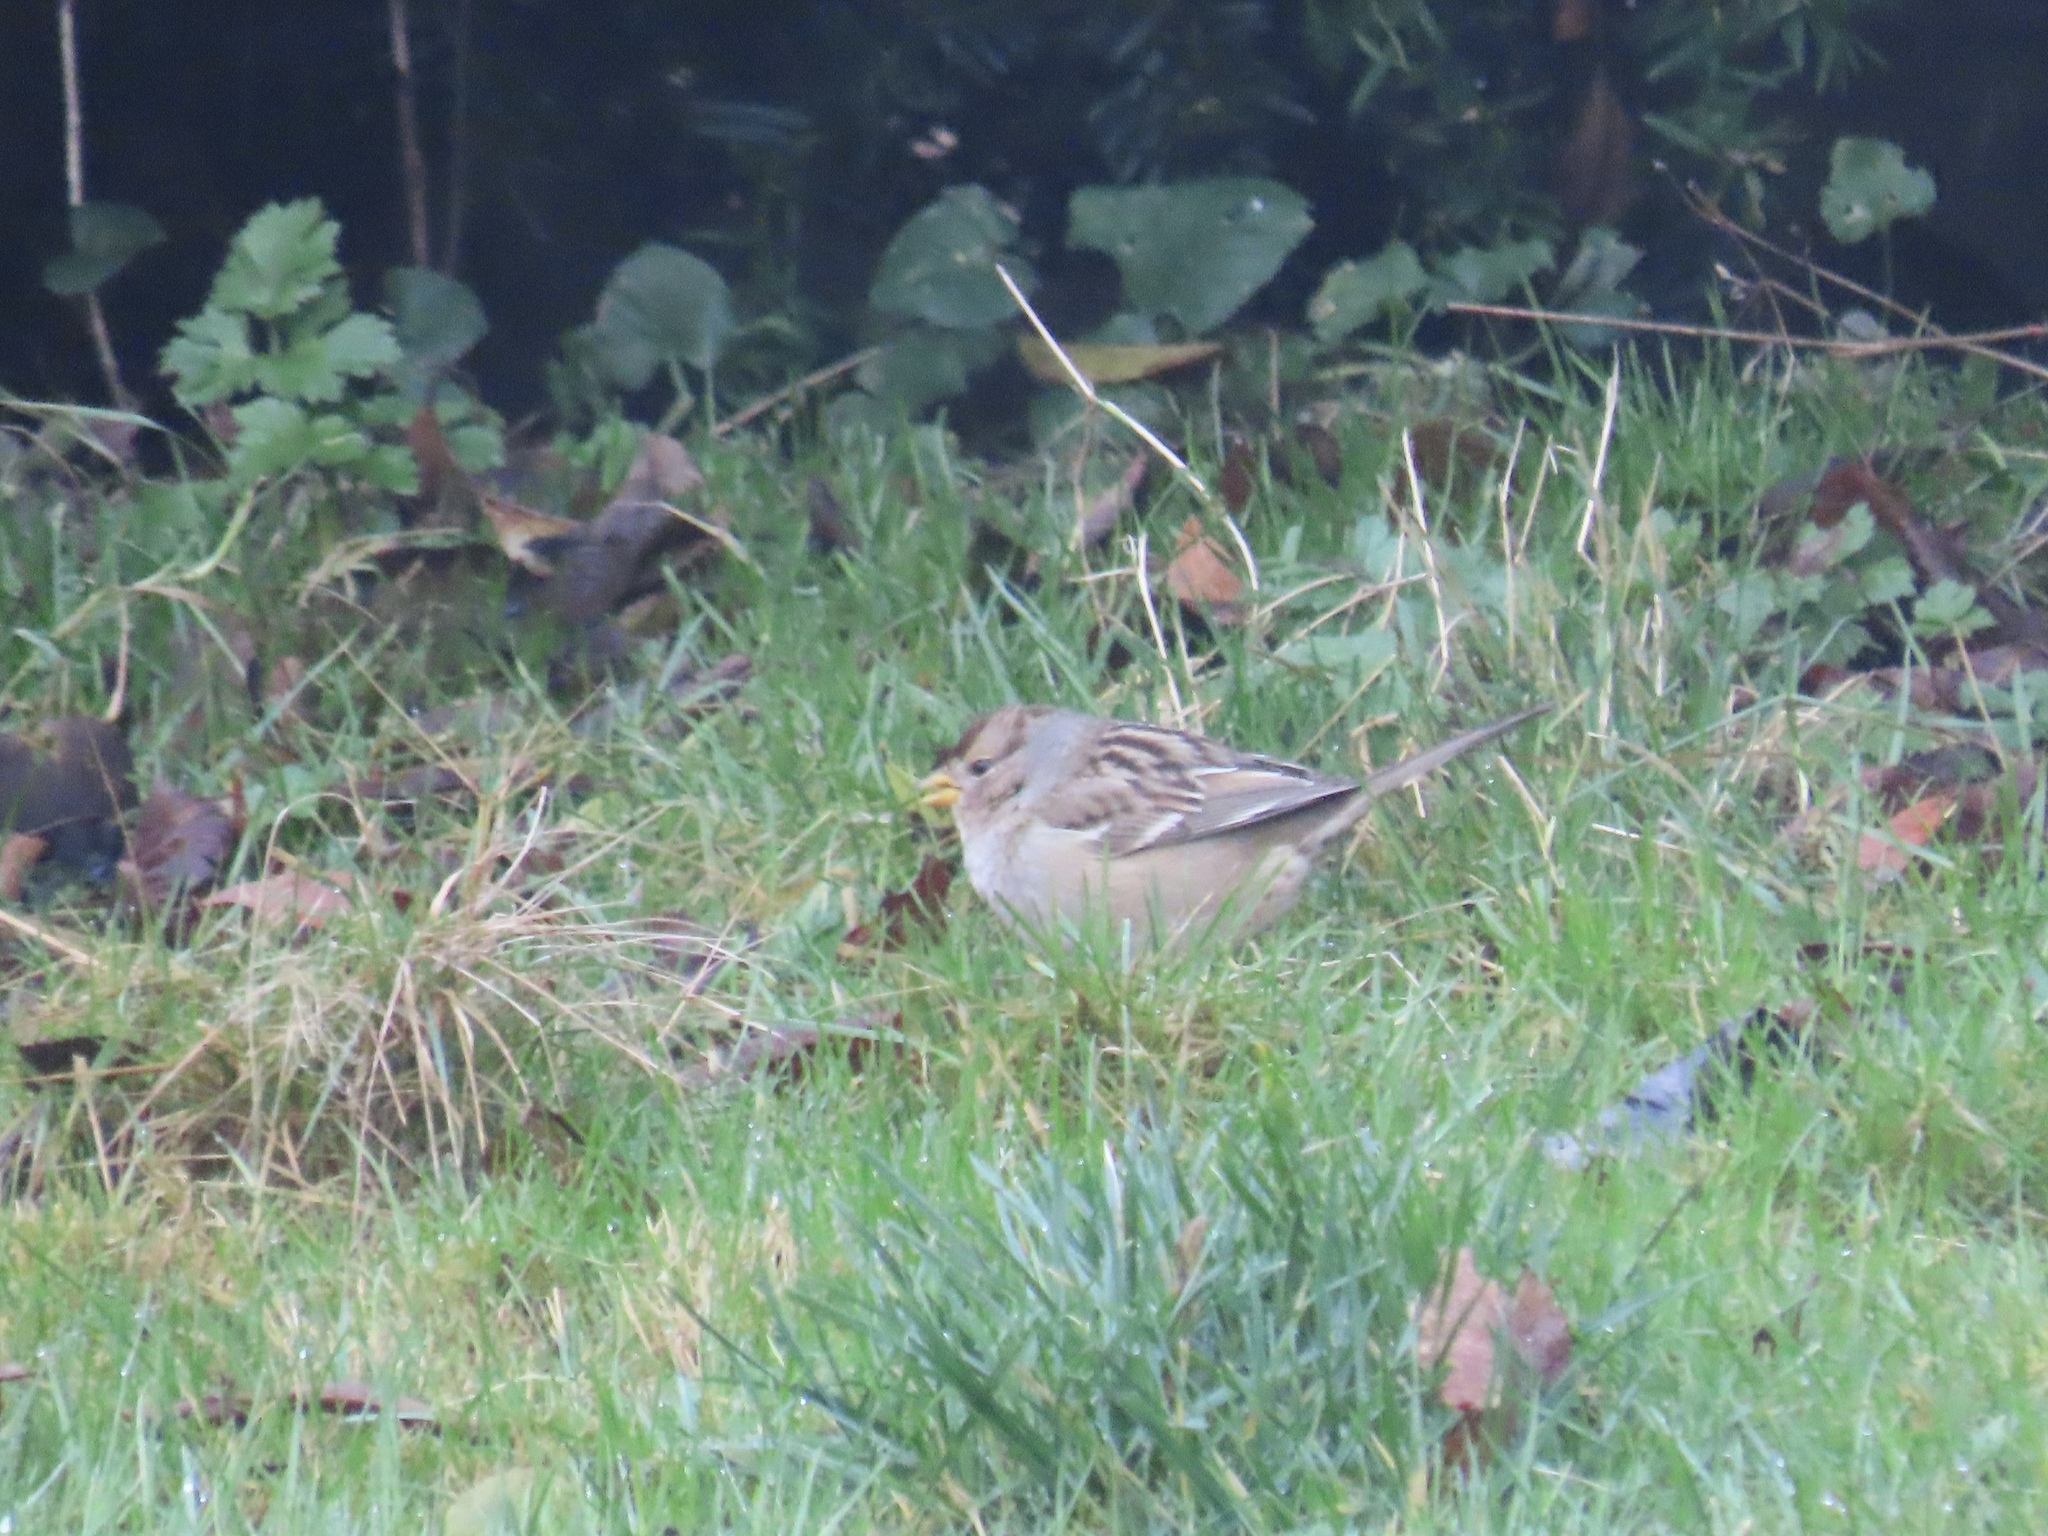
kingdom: Animalia
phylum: Chordata
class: Aves
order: Passeriformes
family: Passerellidae
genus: Zonotrichia
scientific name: Zonotrichia leucophrys
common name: White-crowned sparrow
